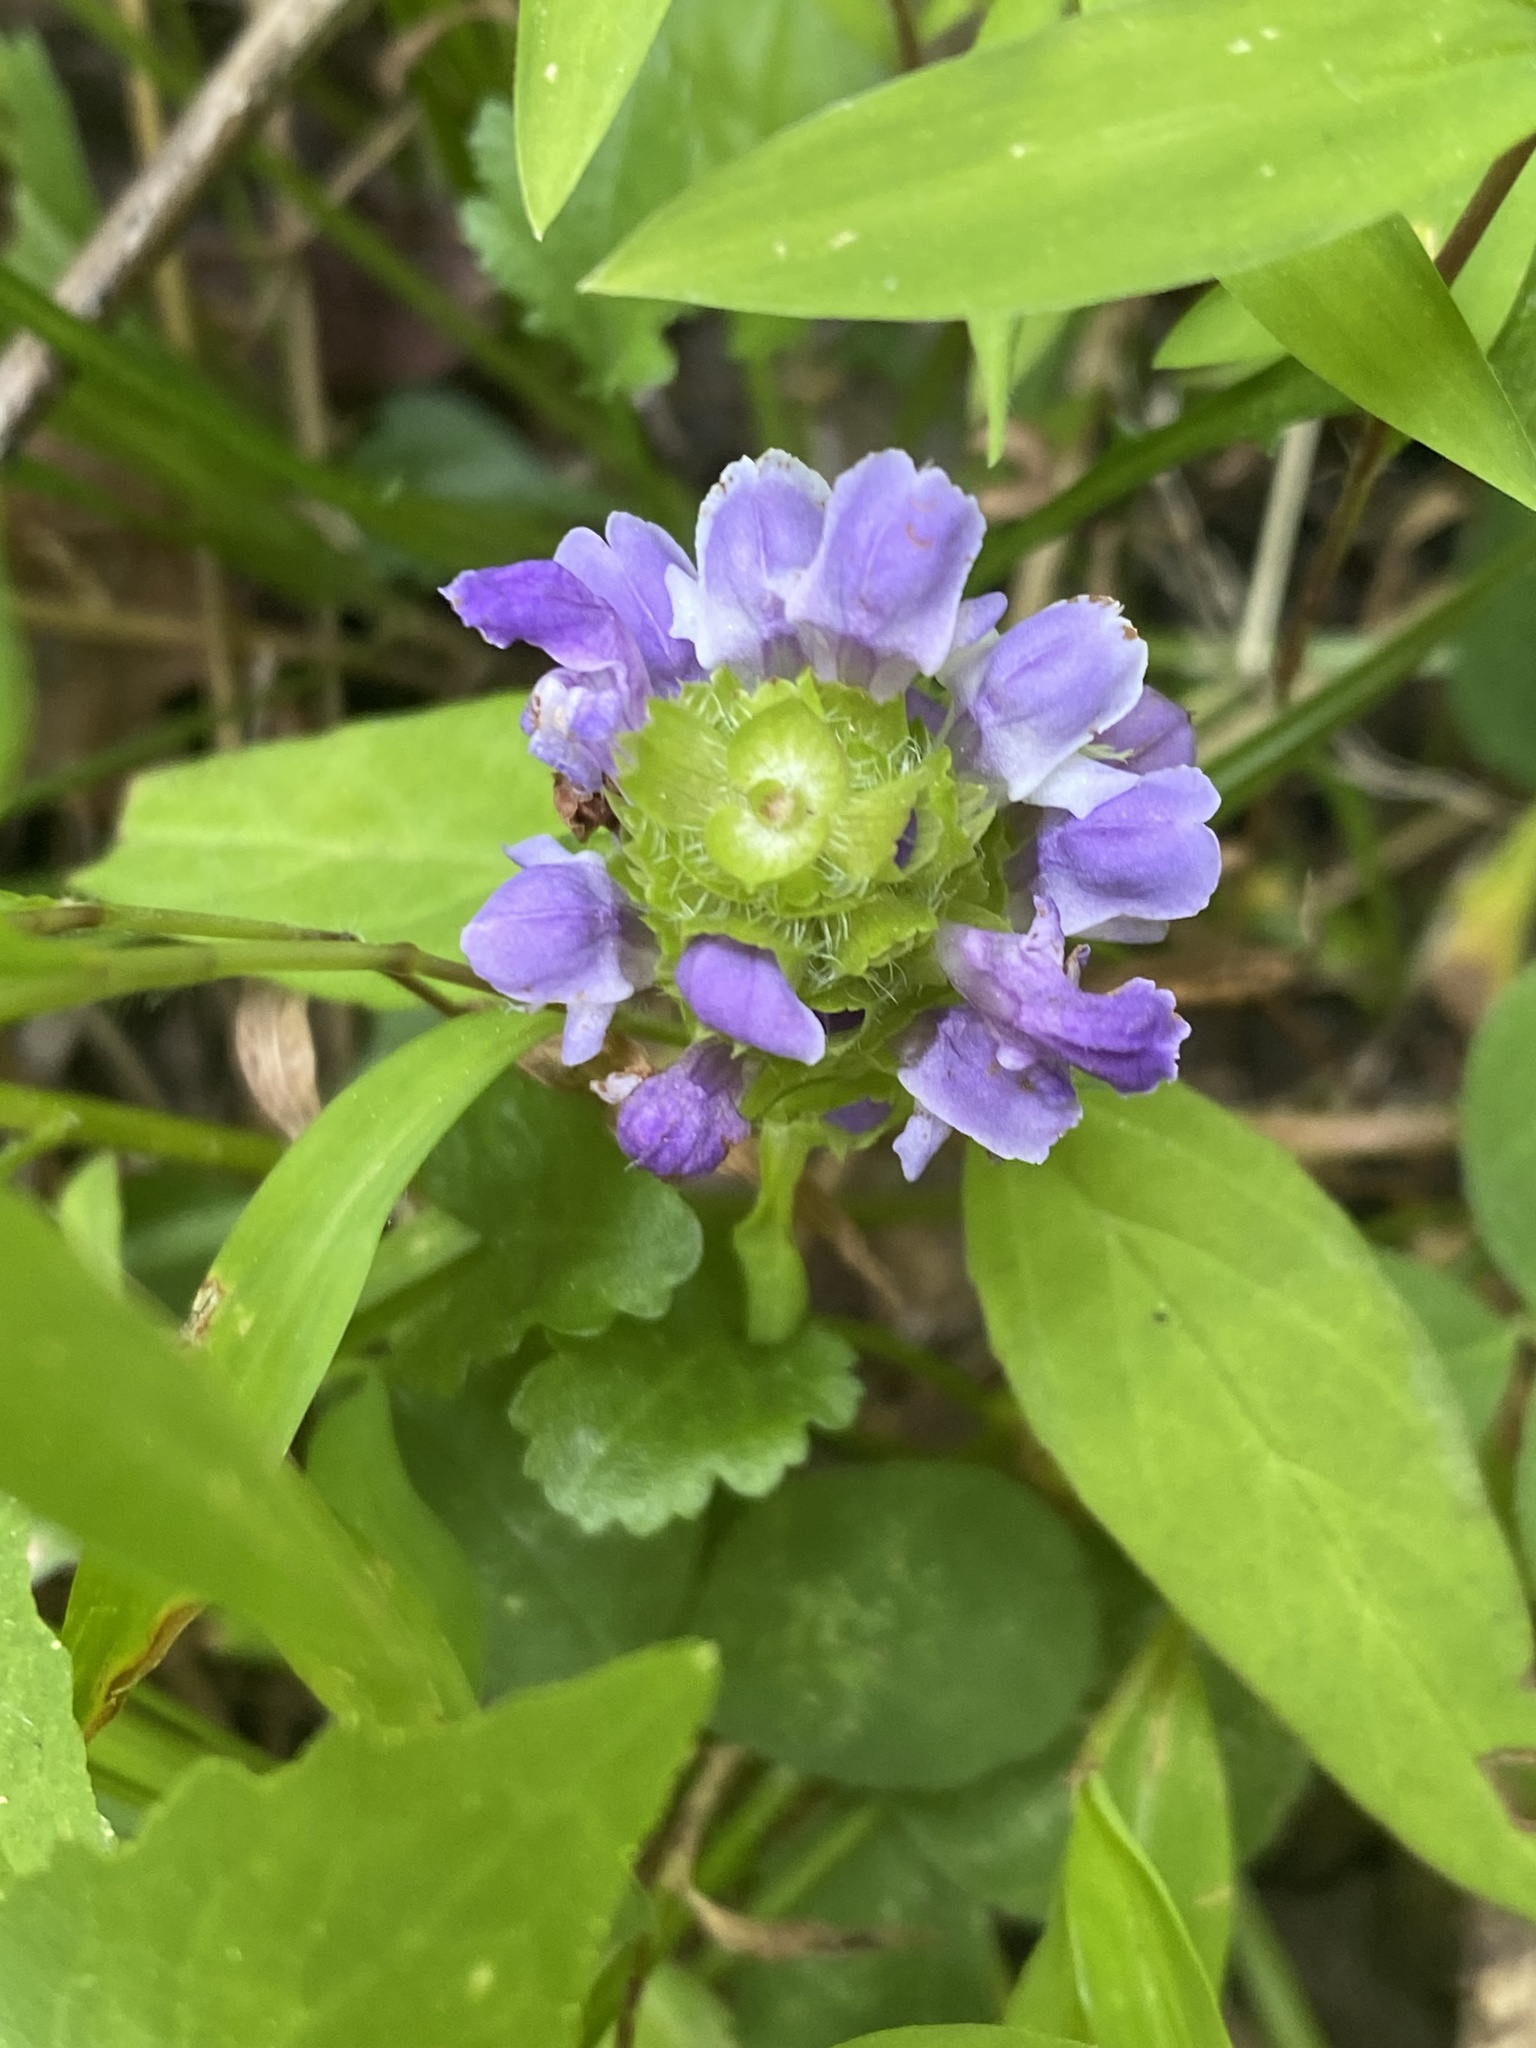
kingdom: Plantae
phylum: Tracheophyta
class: Magnoliopsida
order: Lamiales
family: Lamiaceae
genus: Prunella
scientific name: Prunella vulgaris
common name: Heal-all
